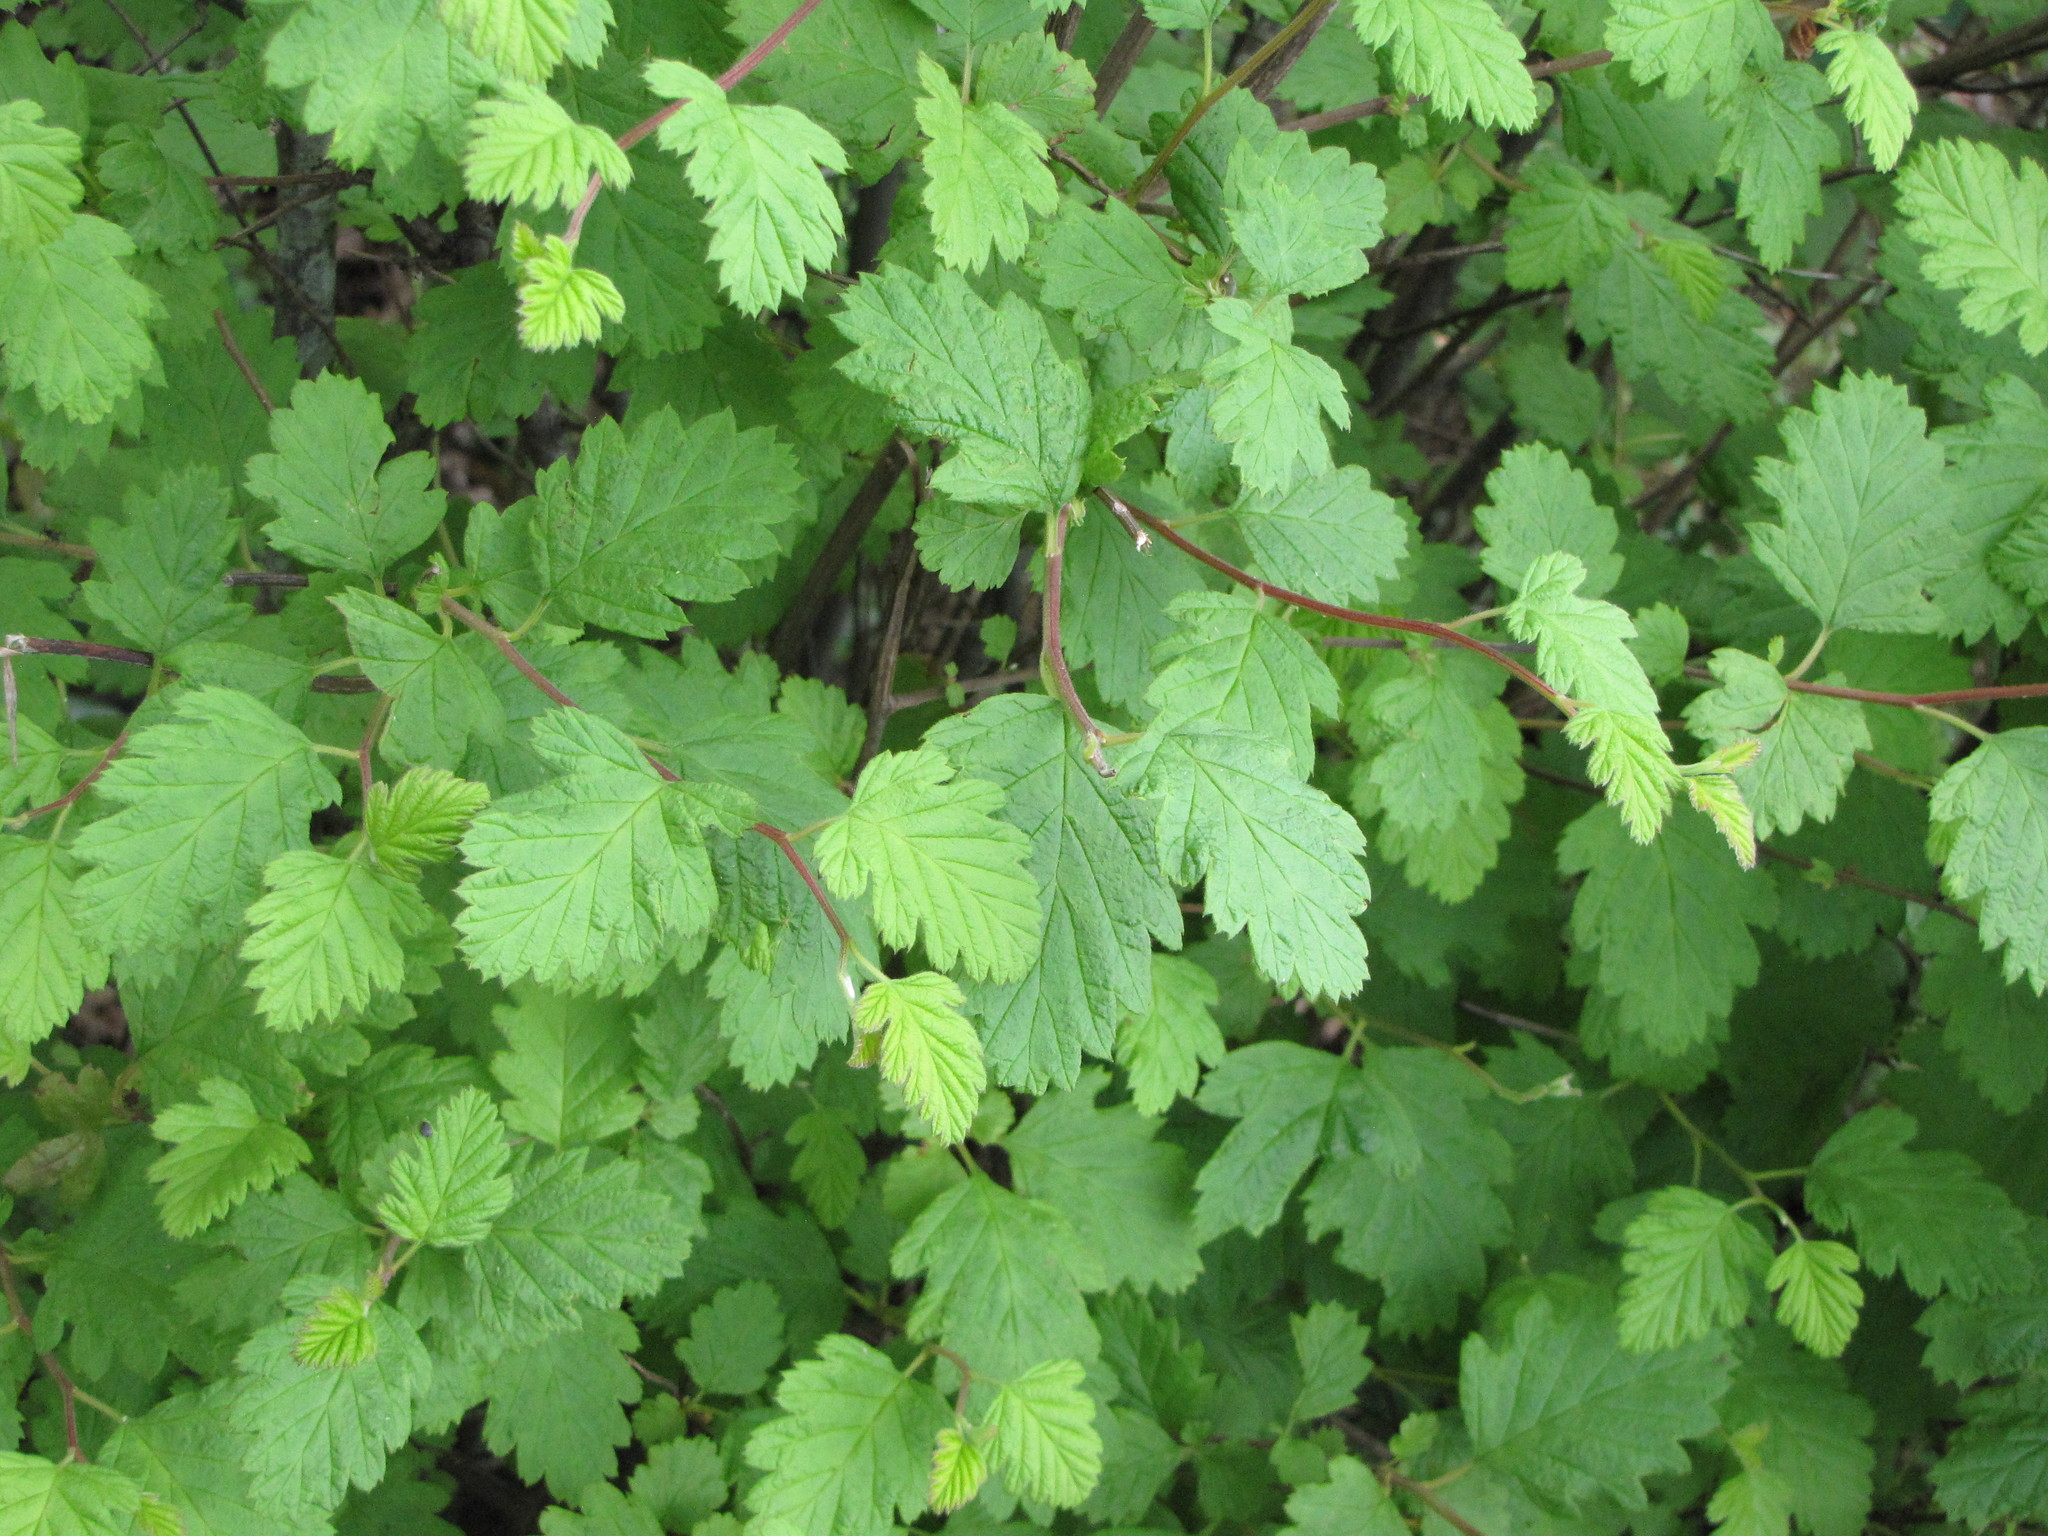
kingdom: Plantae
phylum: Tracheophyta
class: Magnoliopsida
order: Rosales
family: Rosaceae
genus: Holodiscus
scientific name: Holodiscus discolor
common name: Oceanspray
